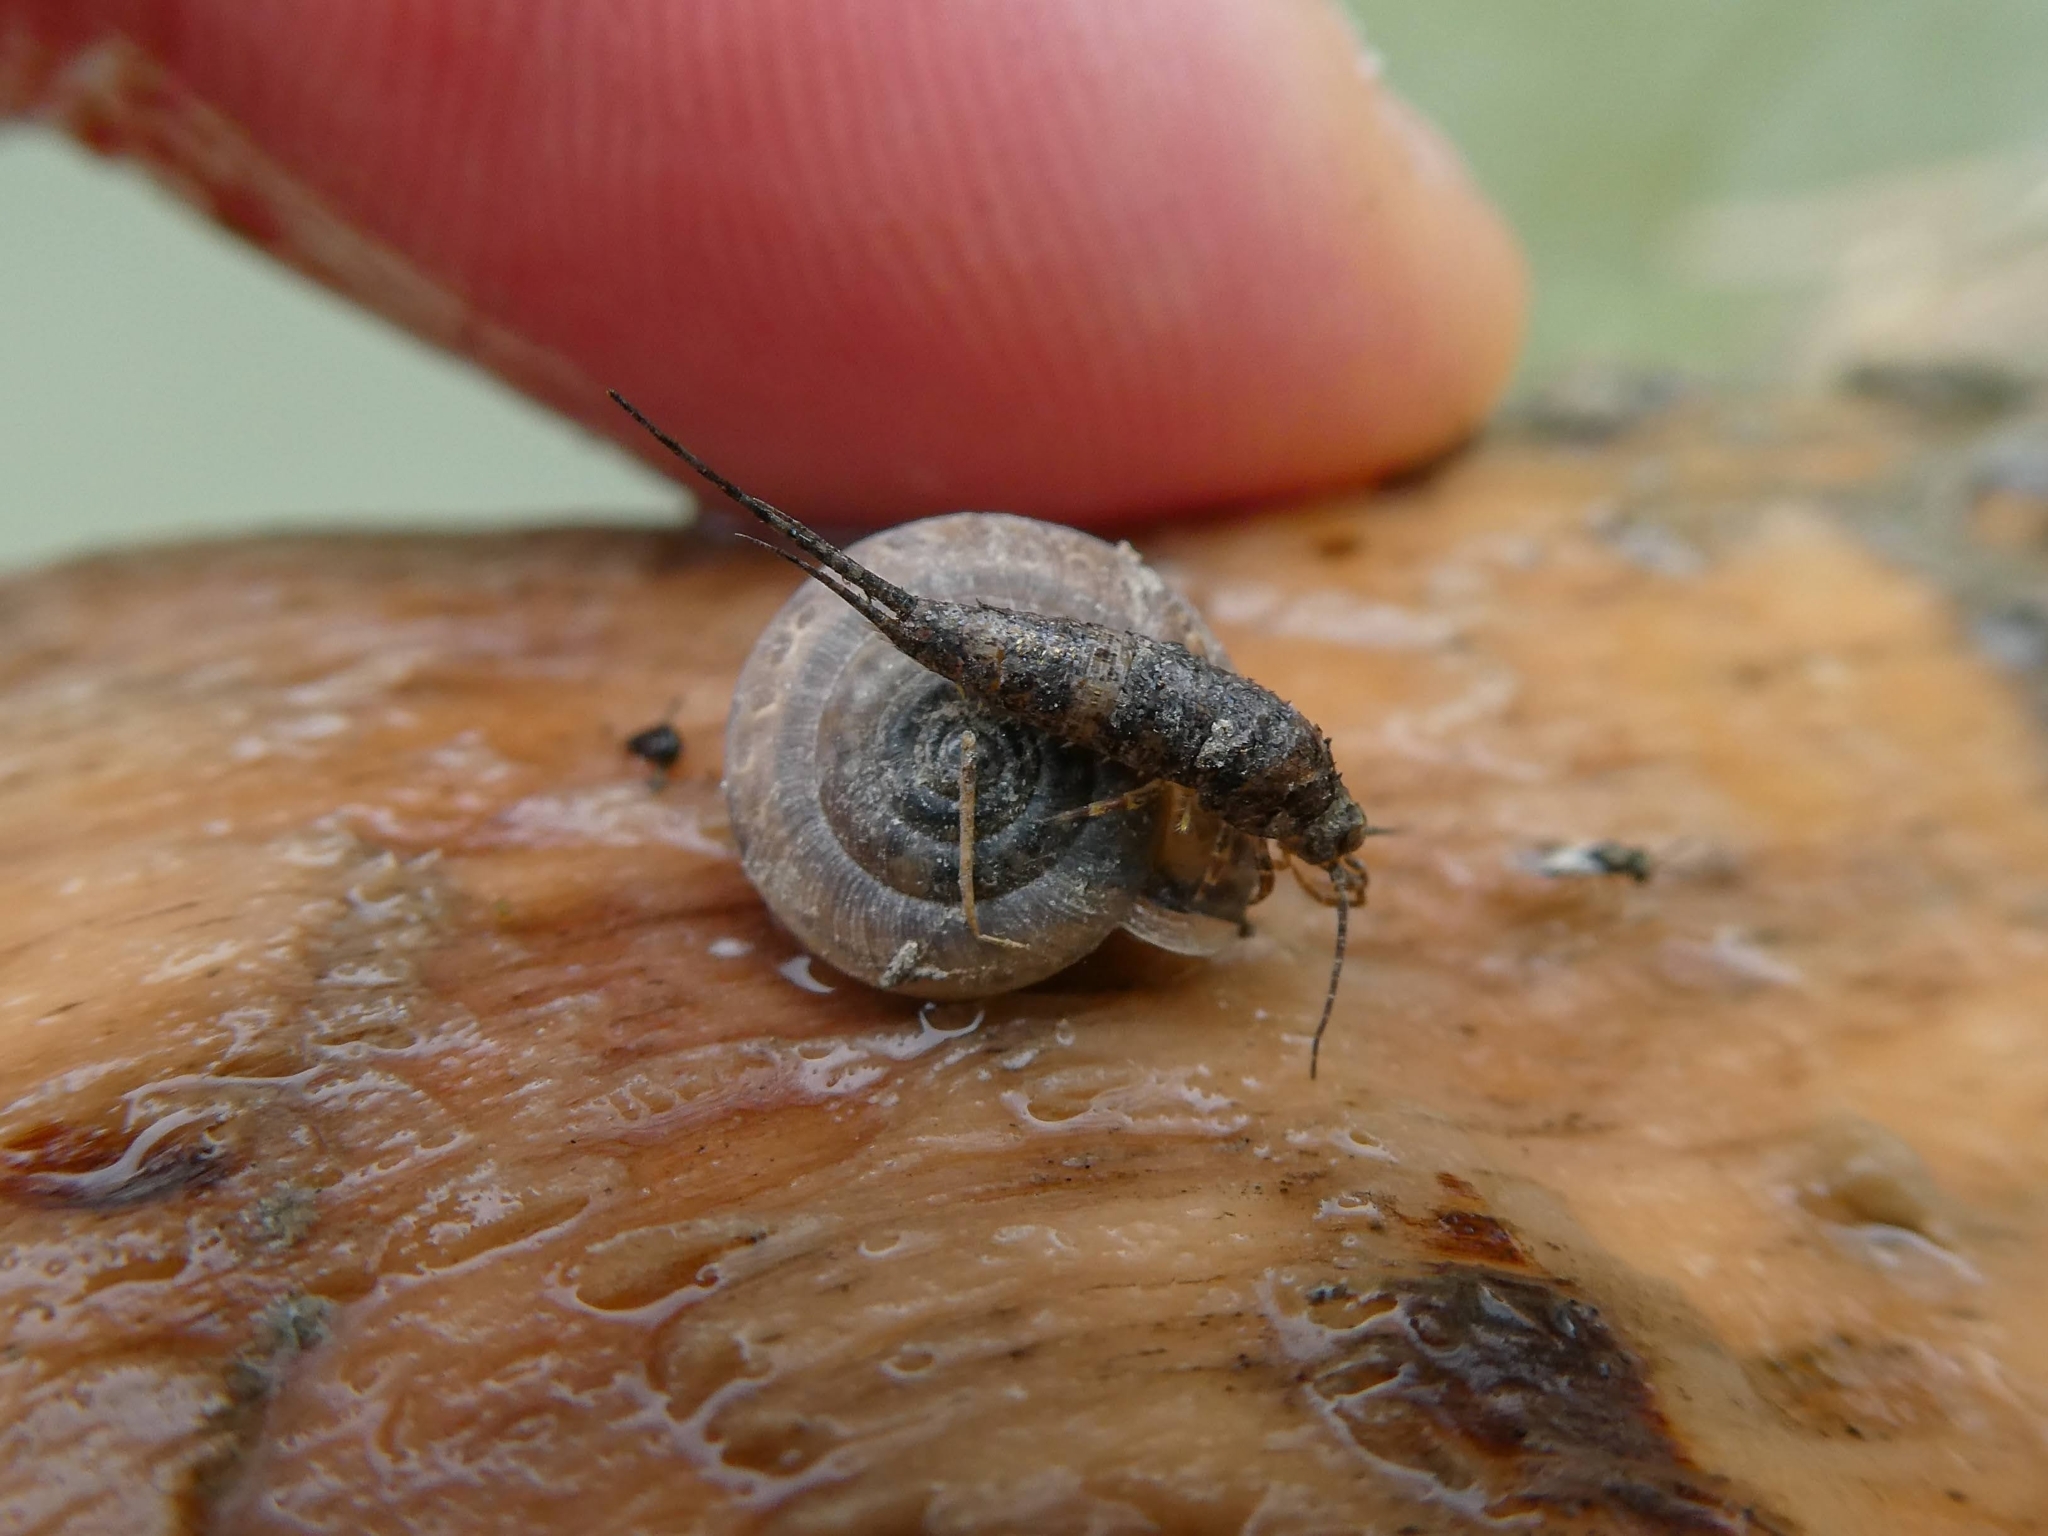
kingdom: Animalia
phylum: Arthropoda
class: Insecta
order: Archaeognatha
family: Machilidae
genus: Lepismachilis
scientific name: Lepismachilis y-signata
